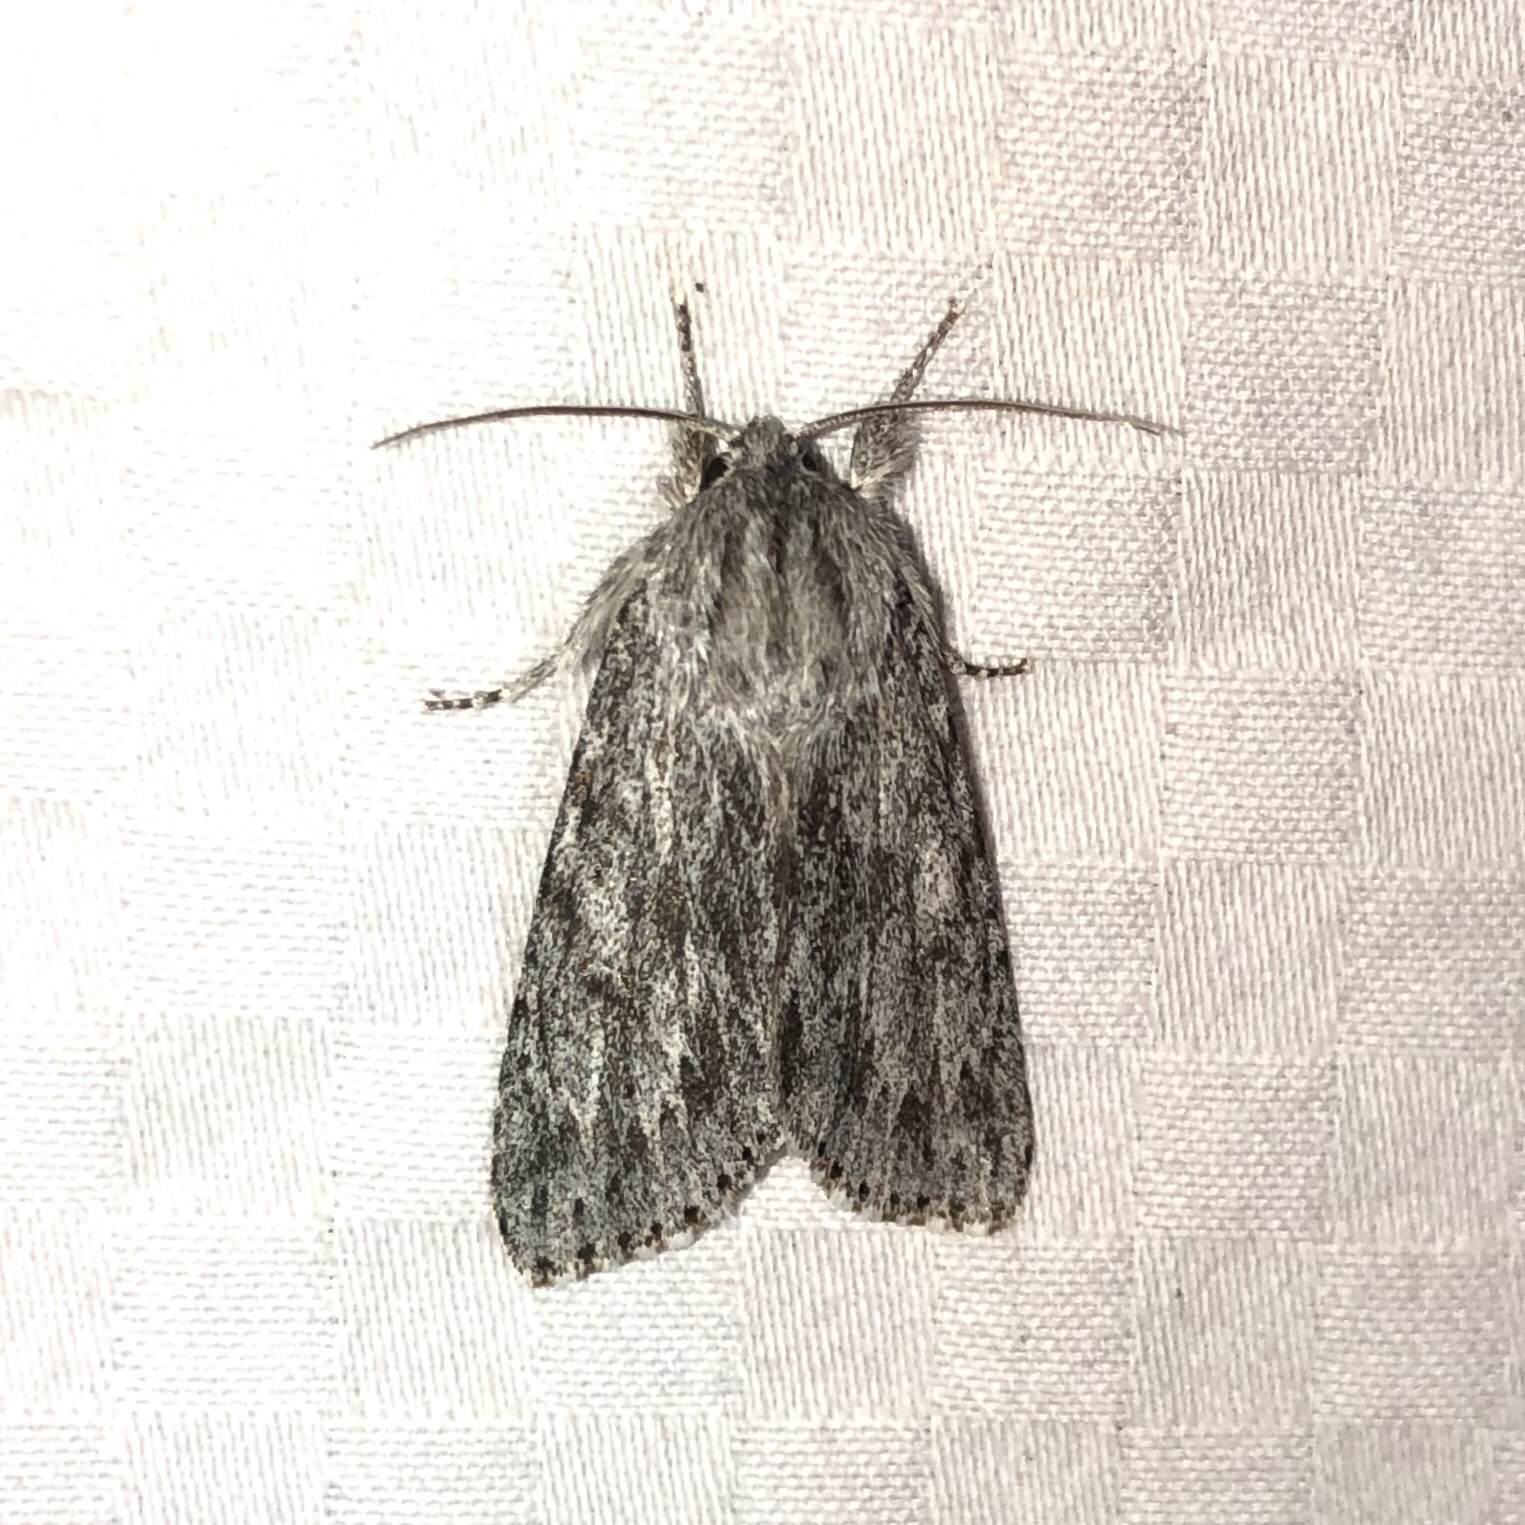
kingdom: Animalia
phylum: Arthropoda
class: Insecta
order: Lepidoptera
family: Noctuidae
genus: Acronicta
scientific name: Acronicta oblinita
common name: Smeared dagger
